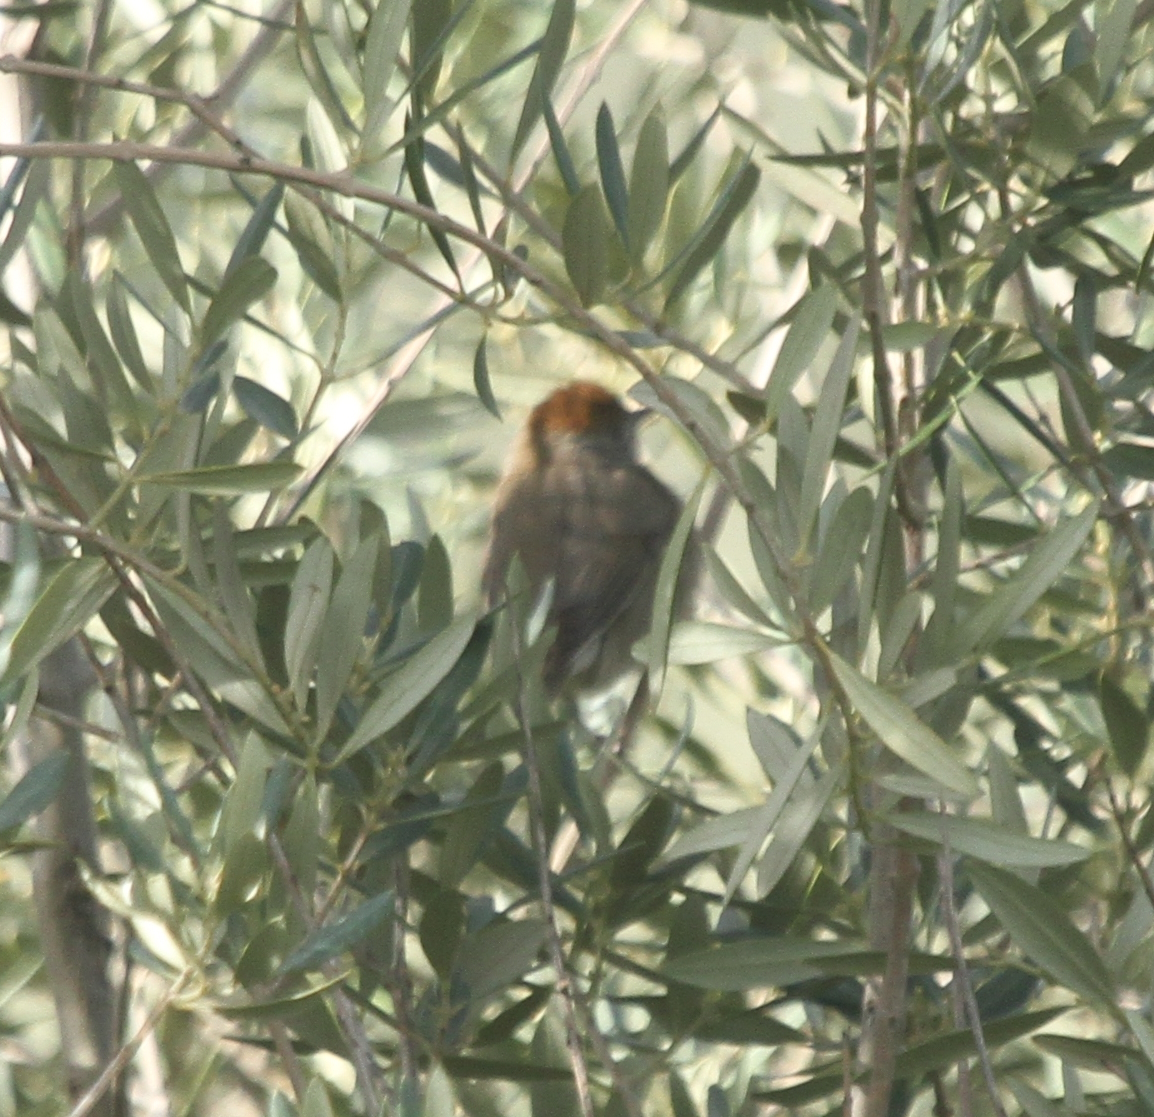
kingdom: Animalia
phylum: Chordata
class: Aves
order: Passeriformes
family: Sylviidae
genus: Sylvia
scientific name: Sylvia atricapilla
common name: Eurasian blackcap
